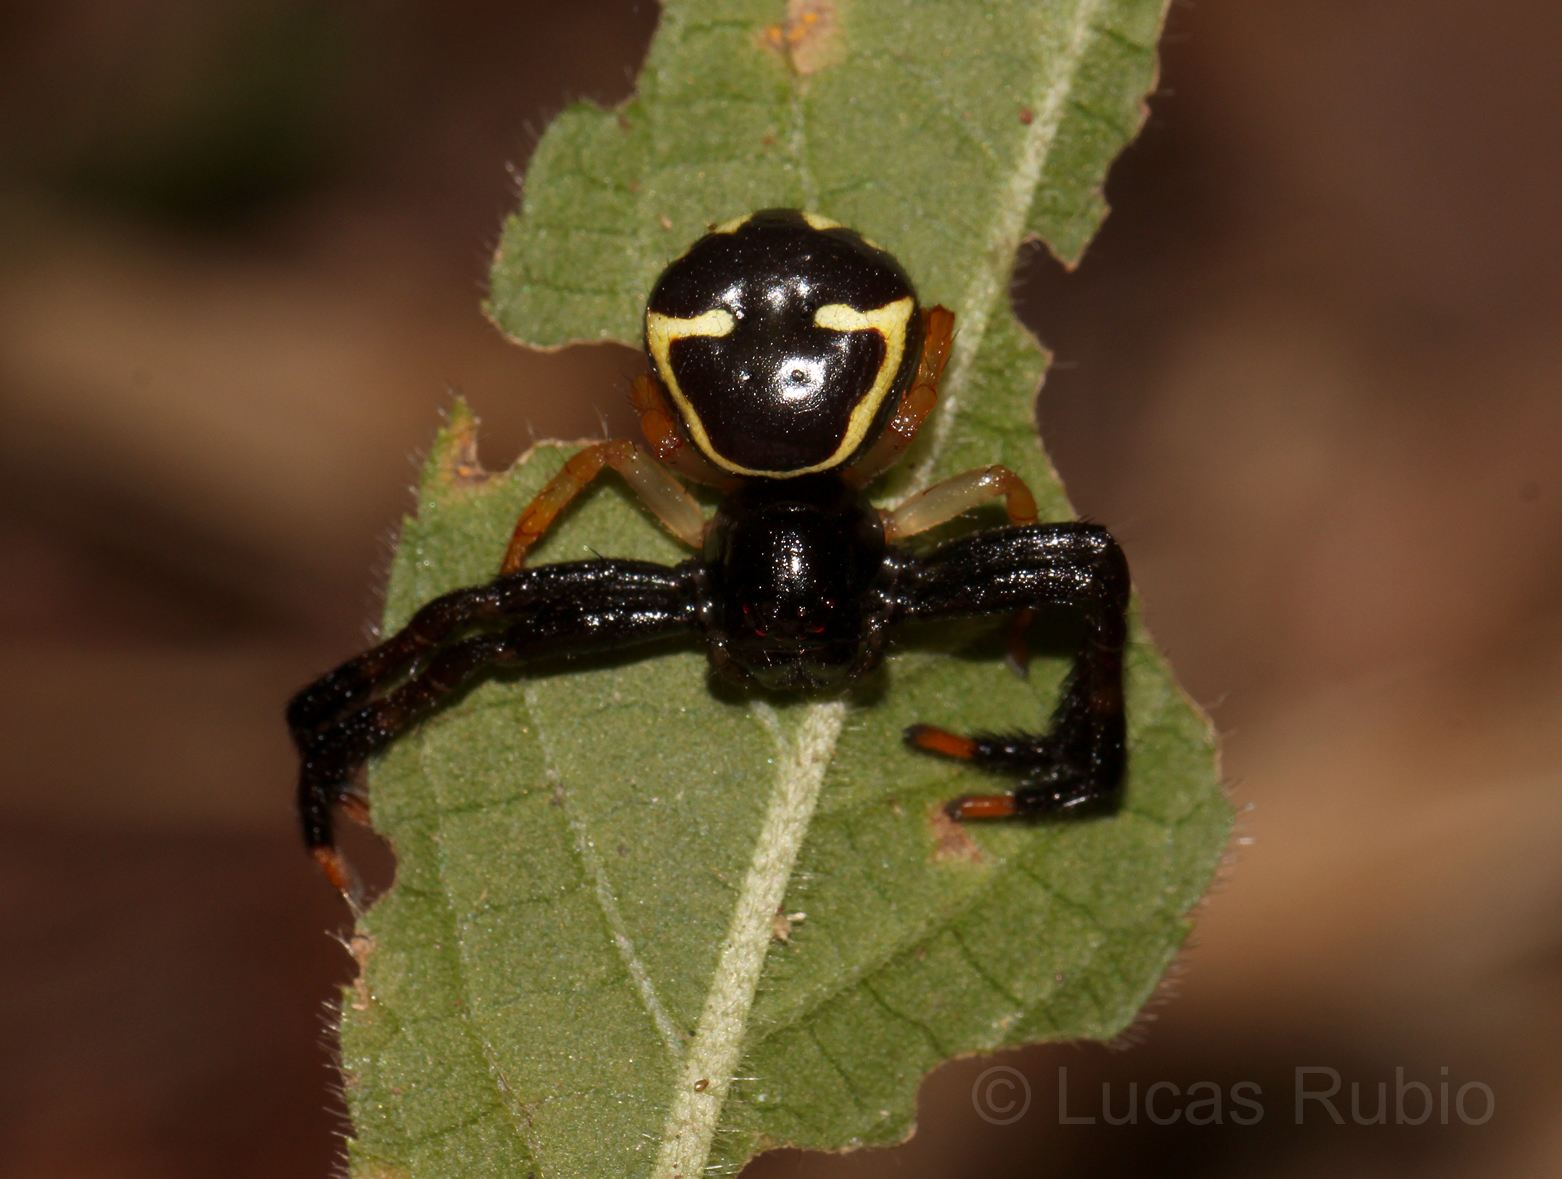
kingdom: Animalia
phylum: Arthropoda
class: Arachnida
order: Araneae
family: Thomisidae
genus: Stephanopoides
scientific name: Stephanopoides sexmaculata
